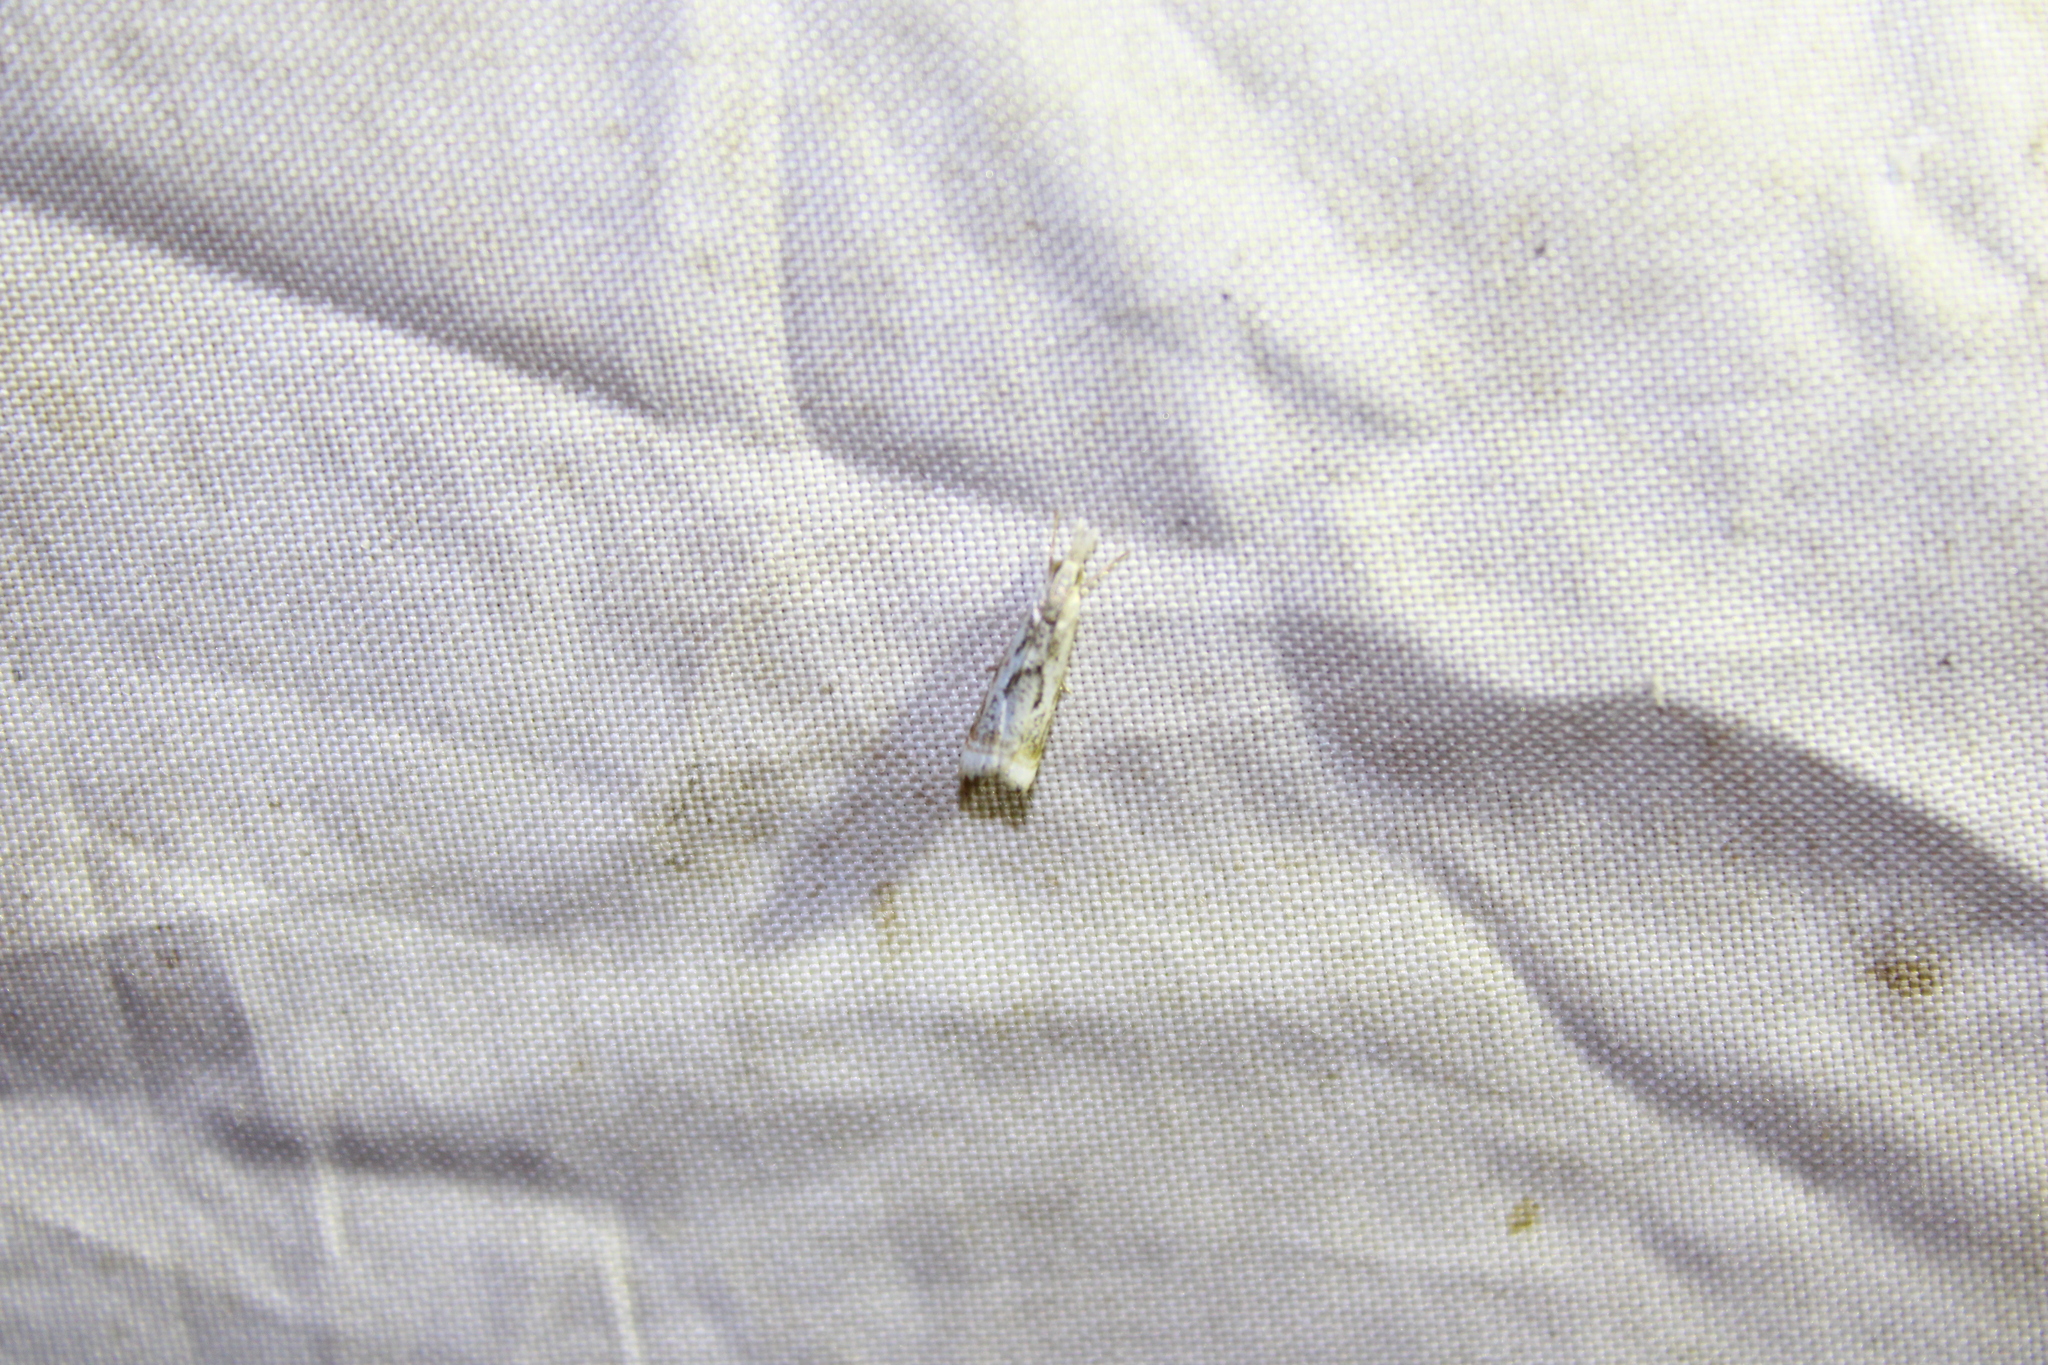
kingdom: Animalia
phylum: Arthropoda
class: Insecta
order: Lepidoptera
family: Crambidae
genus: Microcrambus
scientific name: Microcrambus elegans
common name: Elegant grass-veneer
